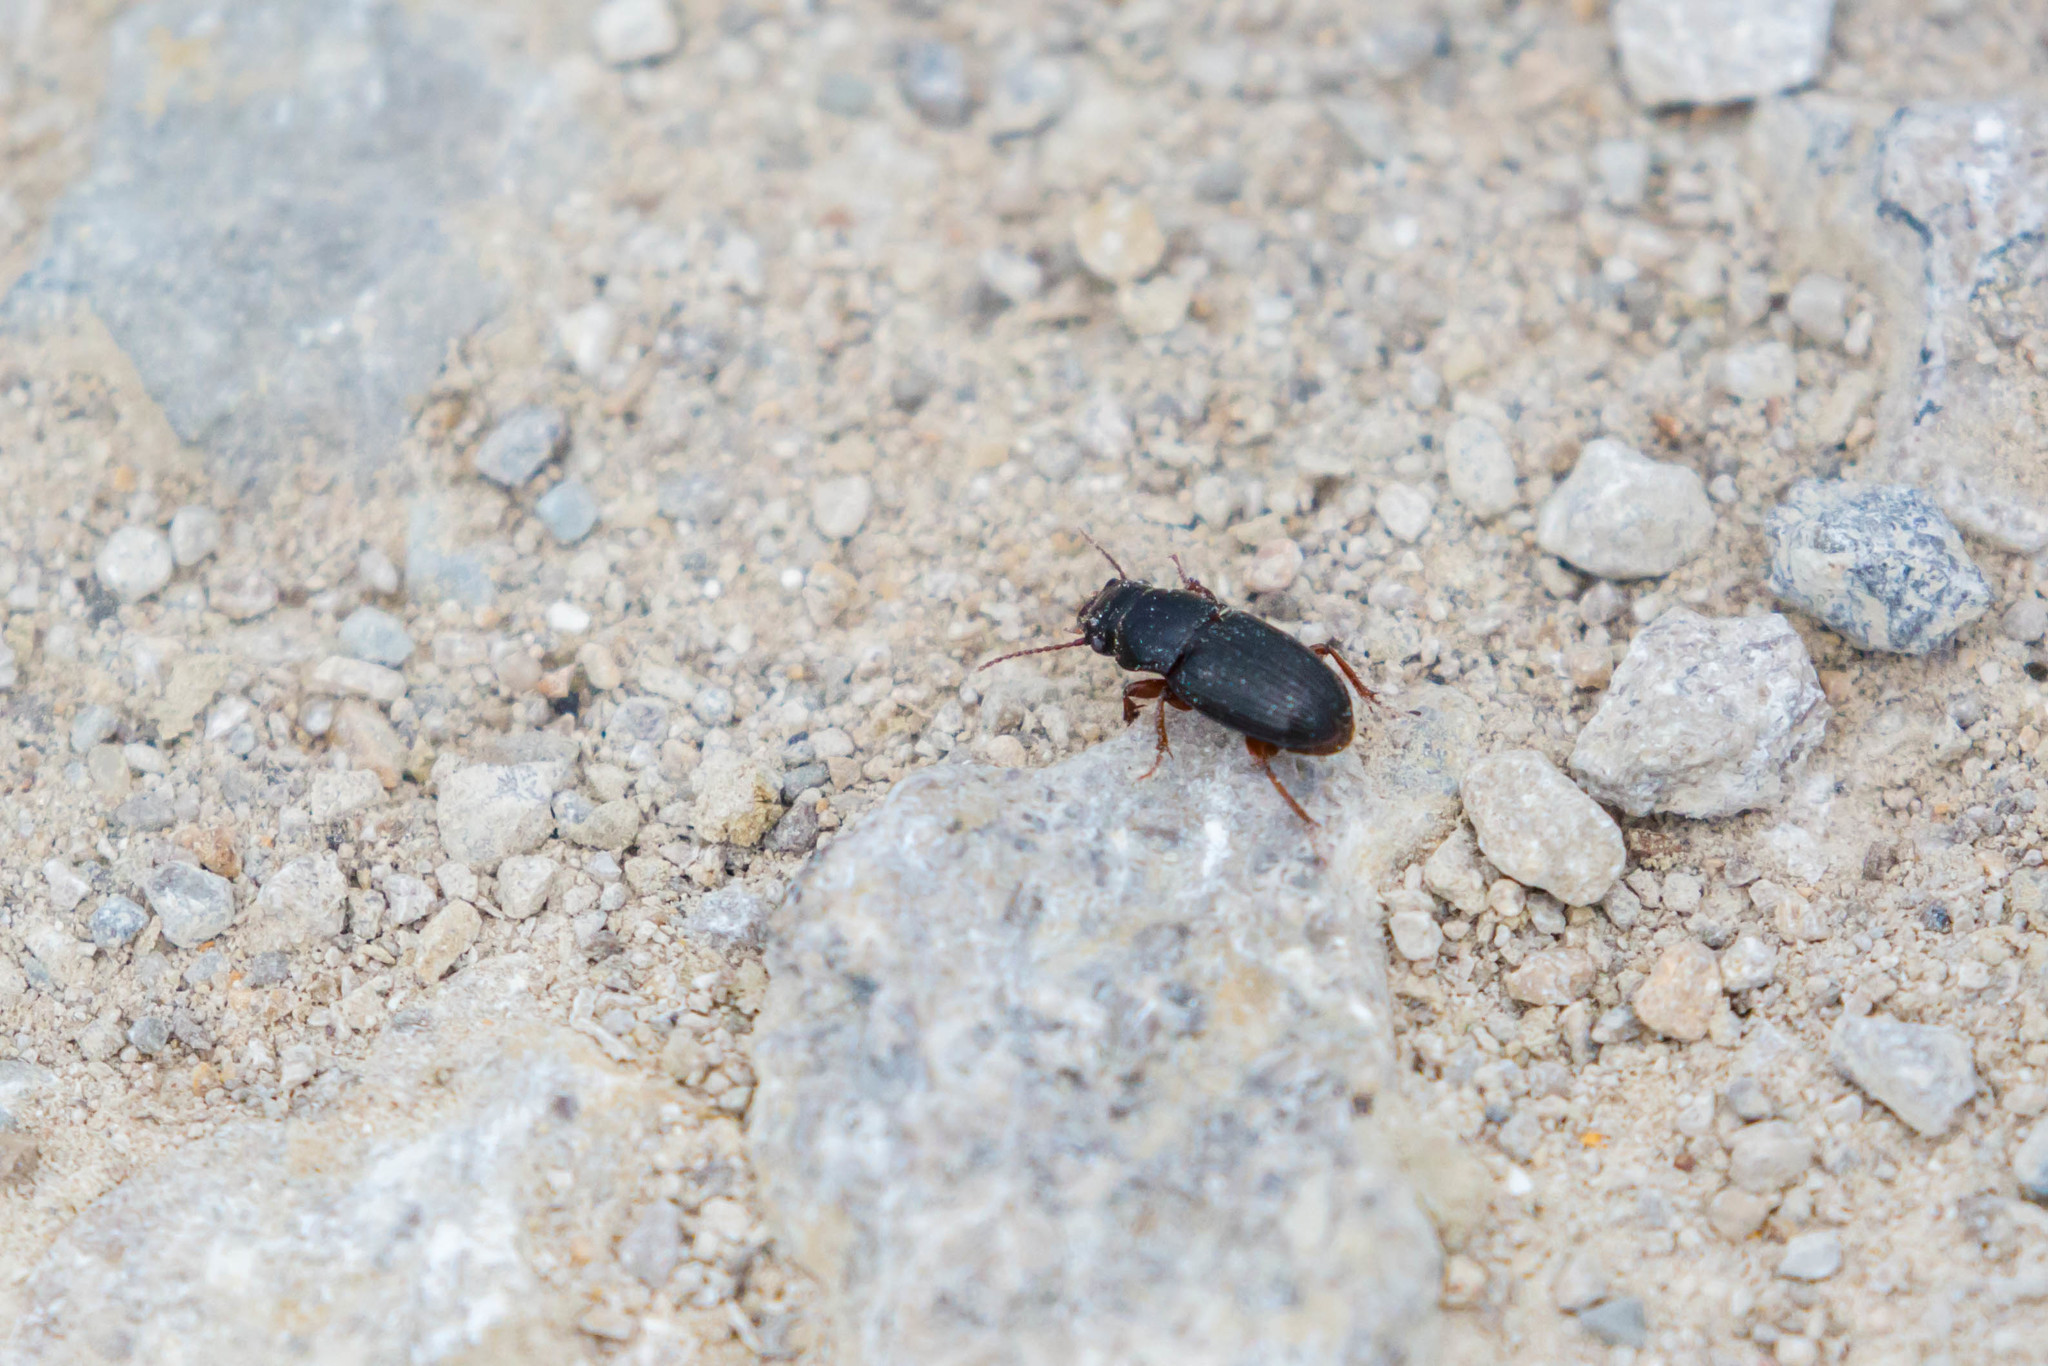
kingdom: Animalia
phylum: Arthropoda
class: Insecta
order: Coleoptera
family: Carabidae
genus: Cratacanthus
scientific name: Cratacanthus dubius
